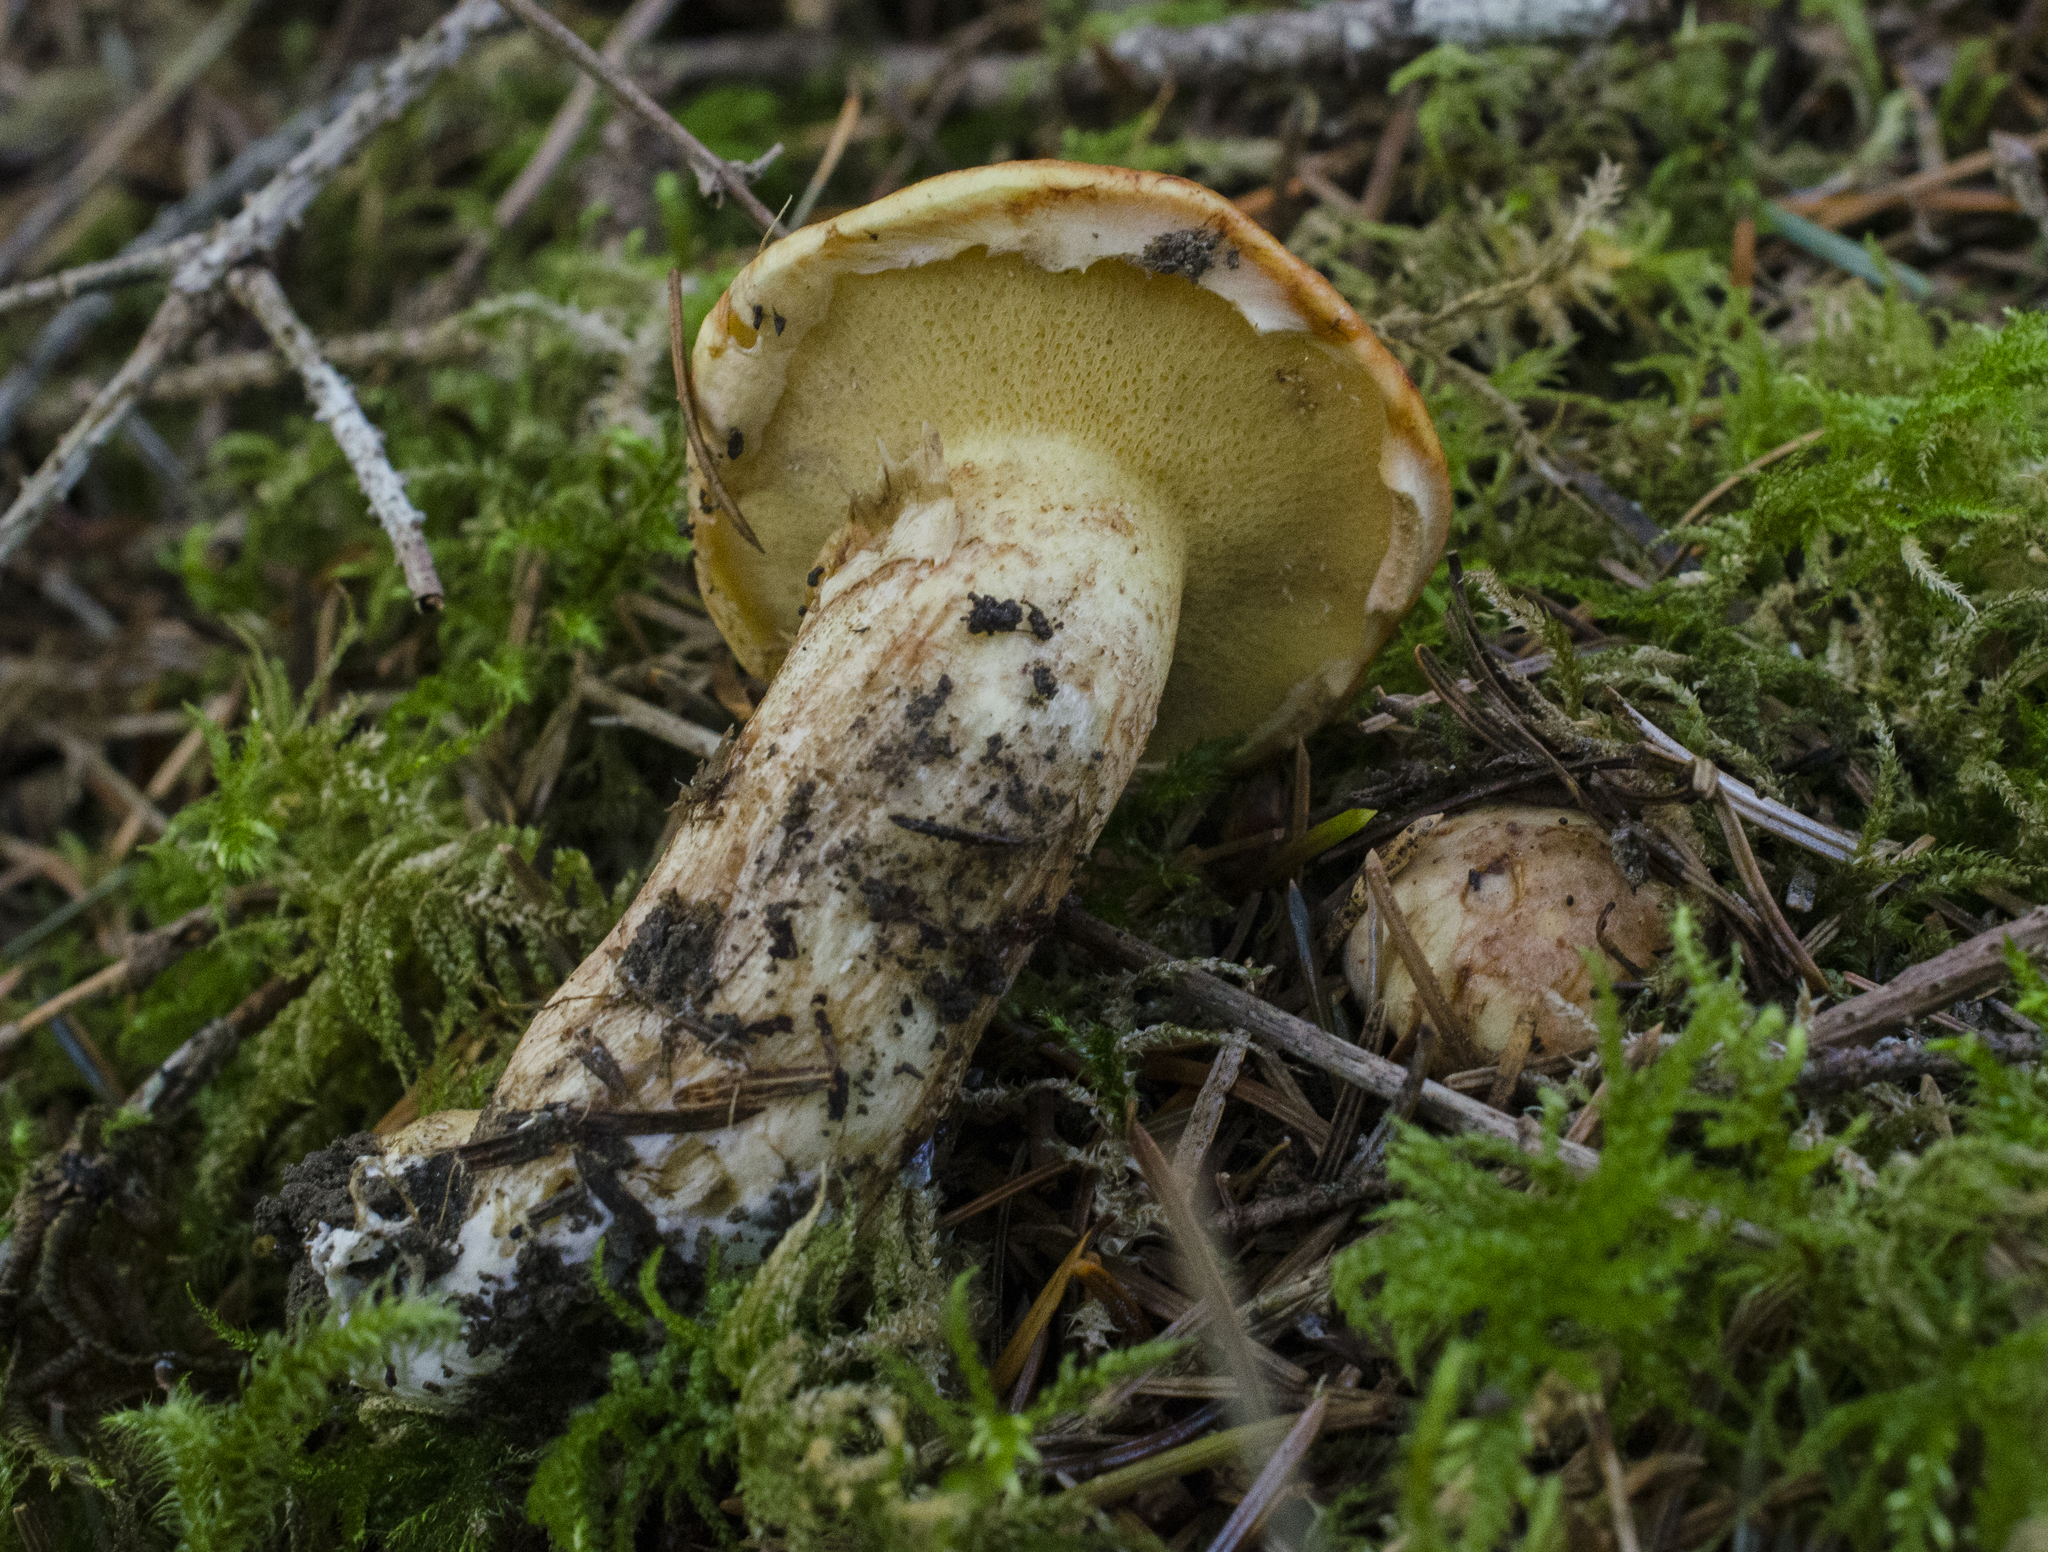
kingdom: Fungi
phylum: Basidiomycota
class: Agaricomycetes
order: Boletales
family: Suillaceae
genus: Suillus
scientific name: Suillus caerulescens
